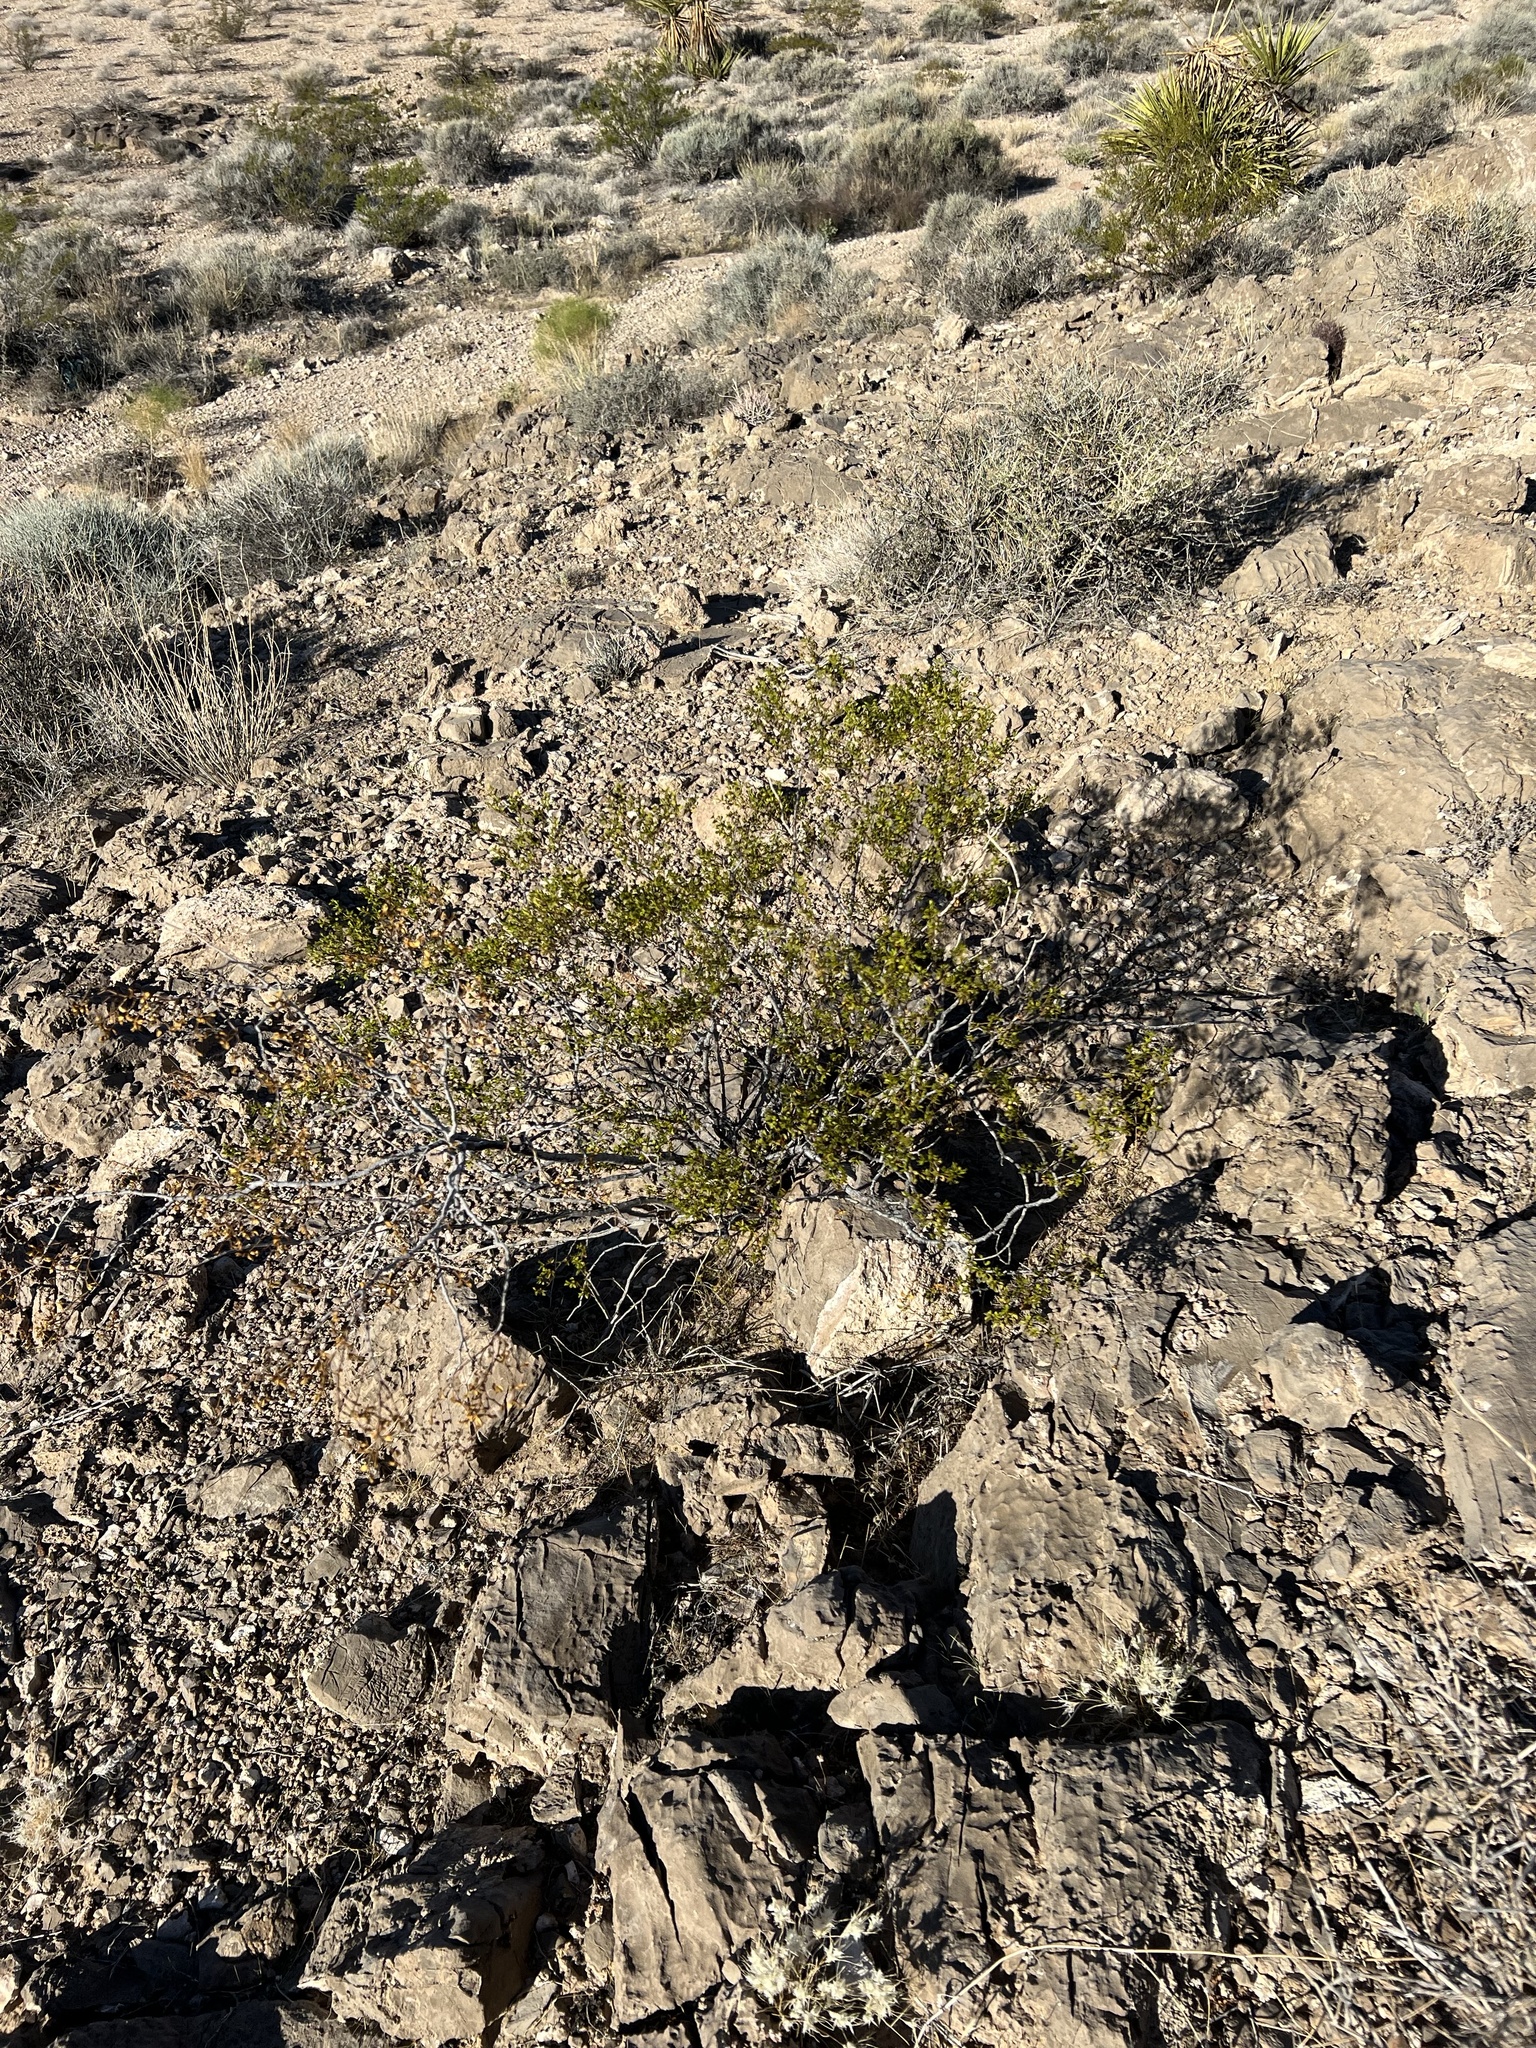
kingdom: Plantae
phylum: Tracheophyta
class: Magnoliopsida
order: Zygophyllales
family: Zygophyllaceae
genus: Larrea
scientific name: Larrea tridentata
